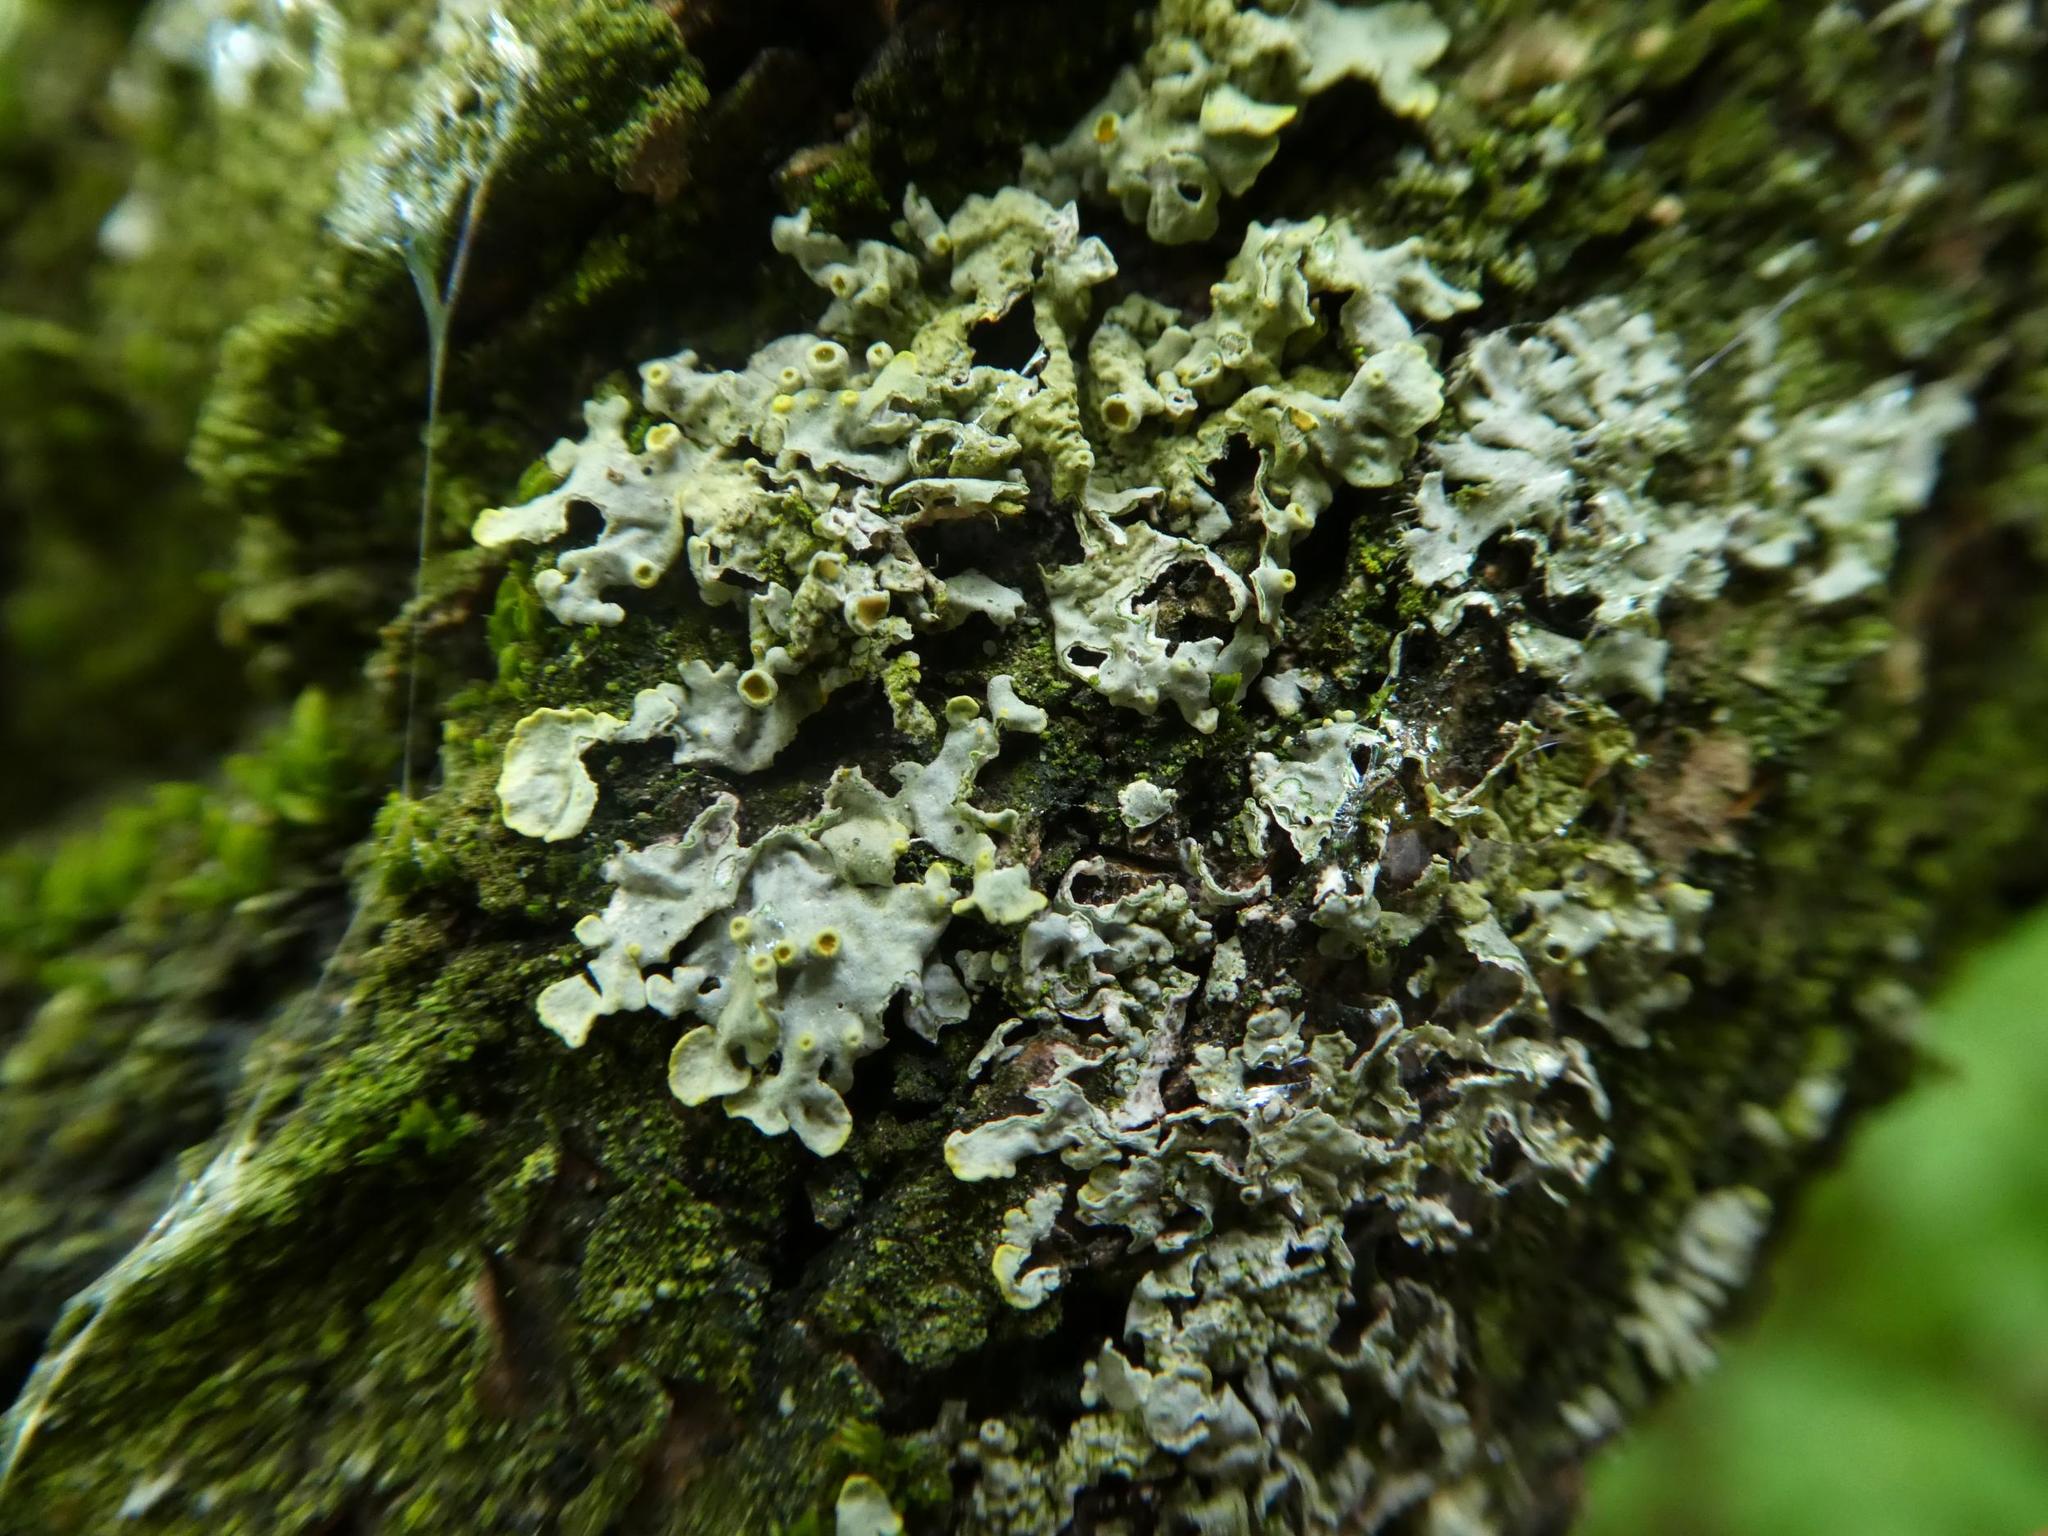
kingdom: Fungi
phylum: Ascomycota
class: Lecanoromycetes
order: Teloschistales
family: Teloschistaceae
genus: Xanthoria
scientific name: Xanthoria parietina
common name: Common orange lichen
